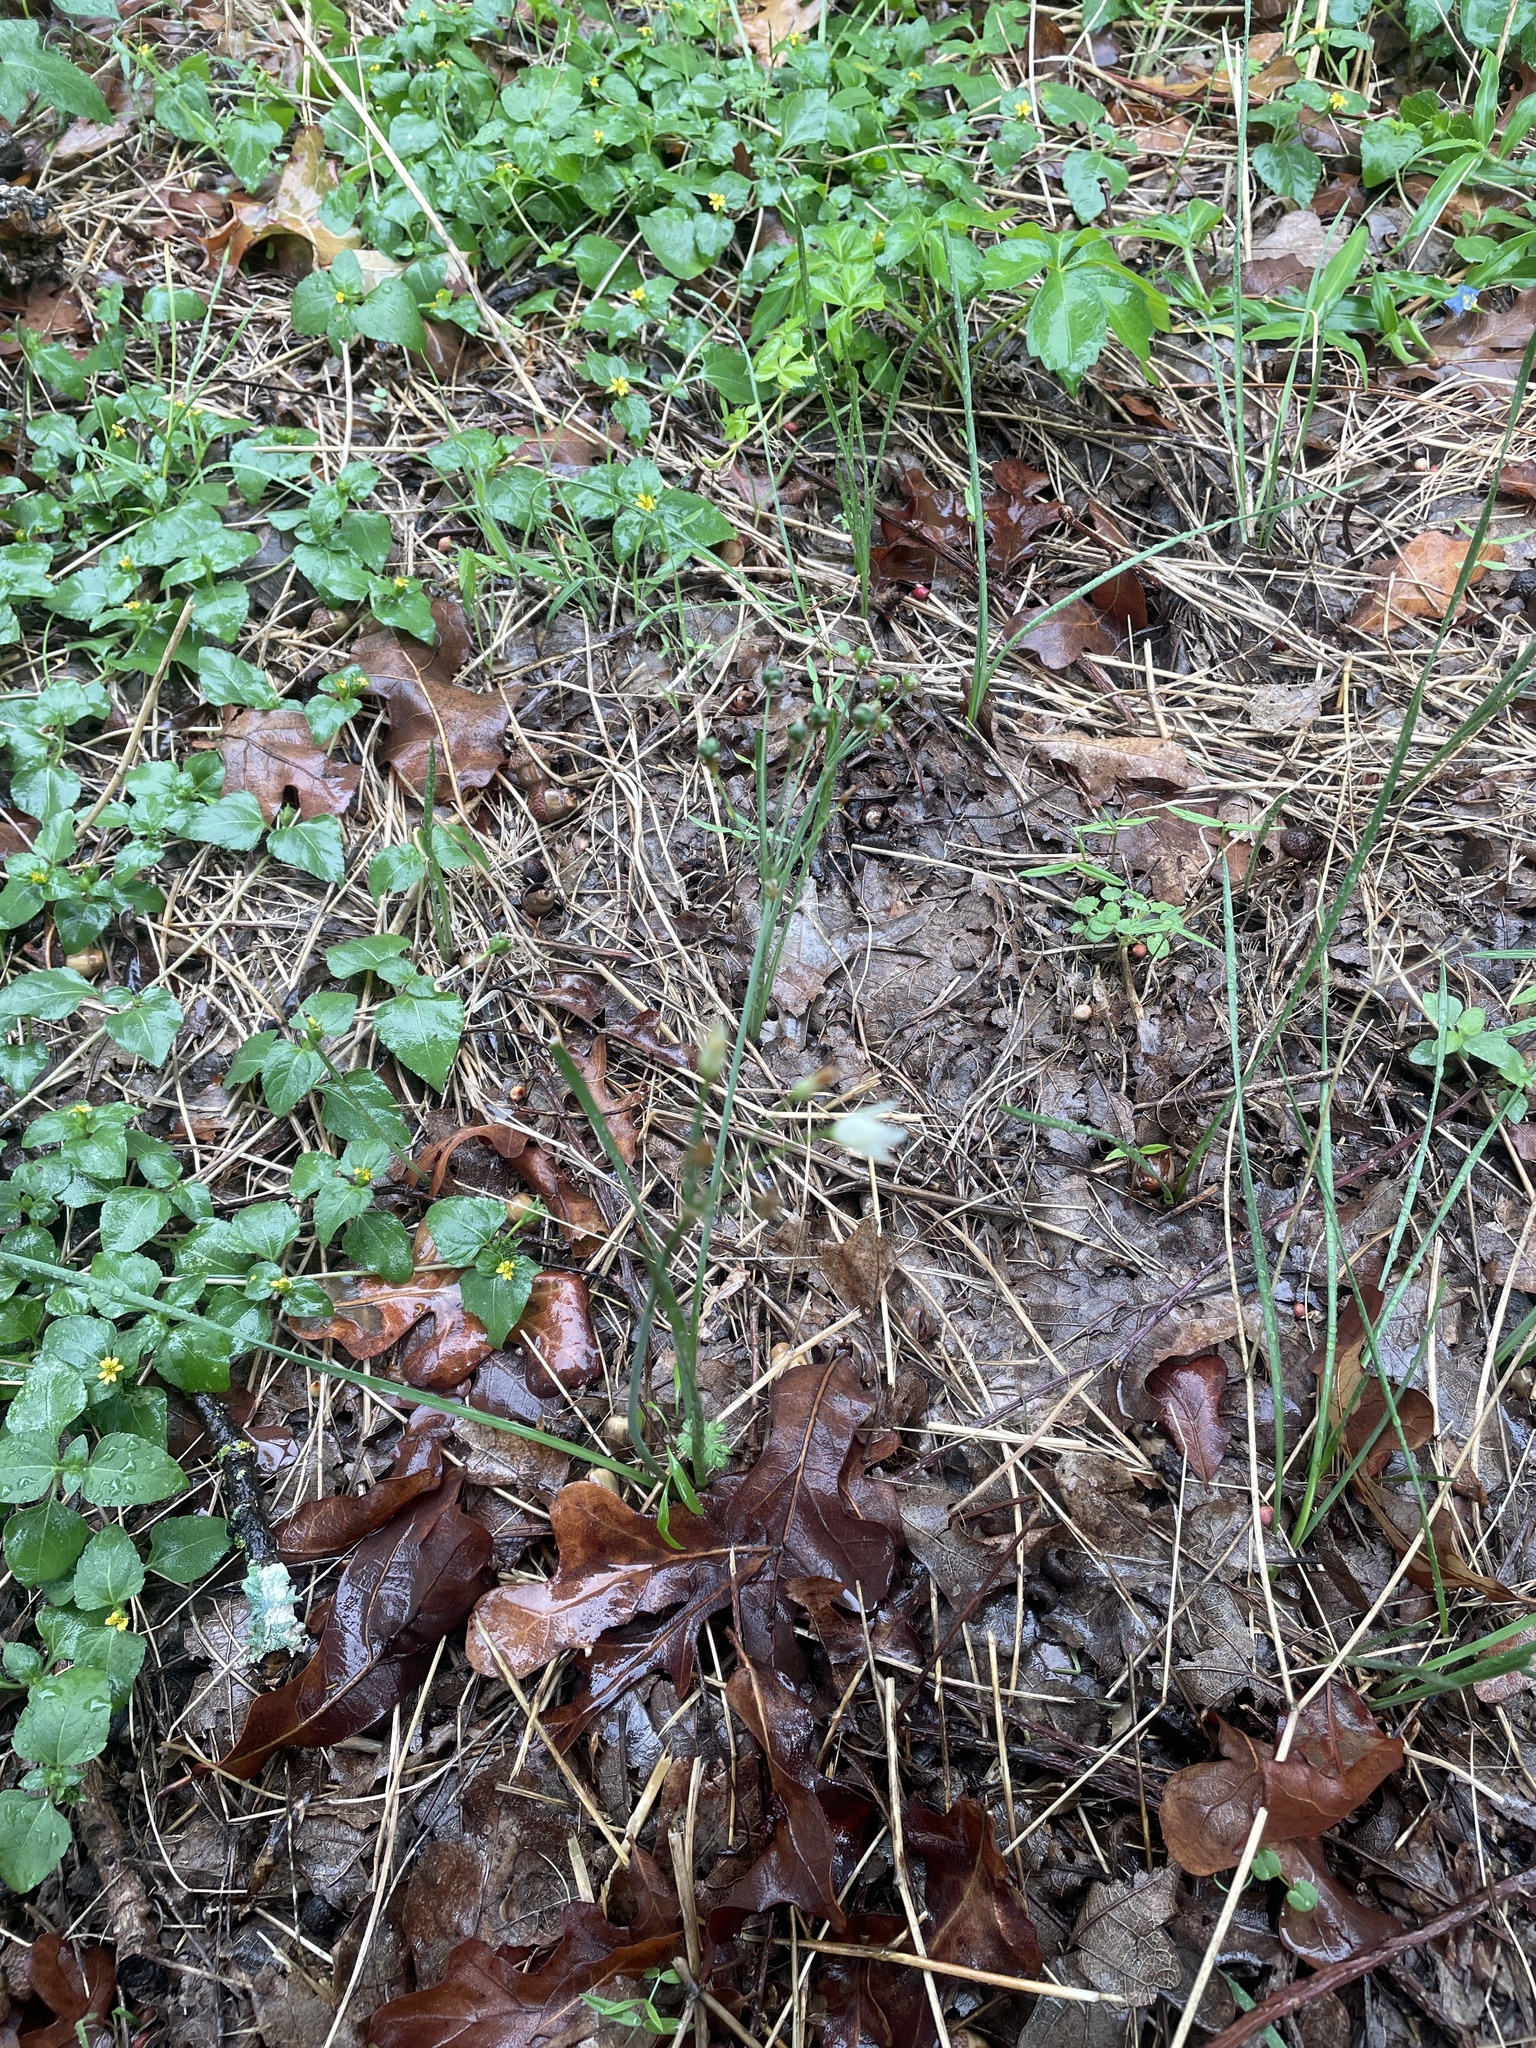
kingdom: Plantae
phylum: Tracheophyta
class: Liliopsida
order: Asparagales
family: Amaryllidaceae
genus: Nothoscordum
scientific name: Nothoscordum bivalve
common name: Crow-poison
